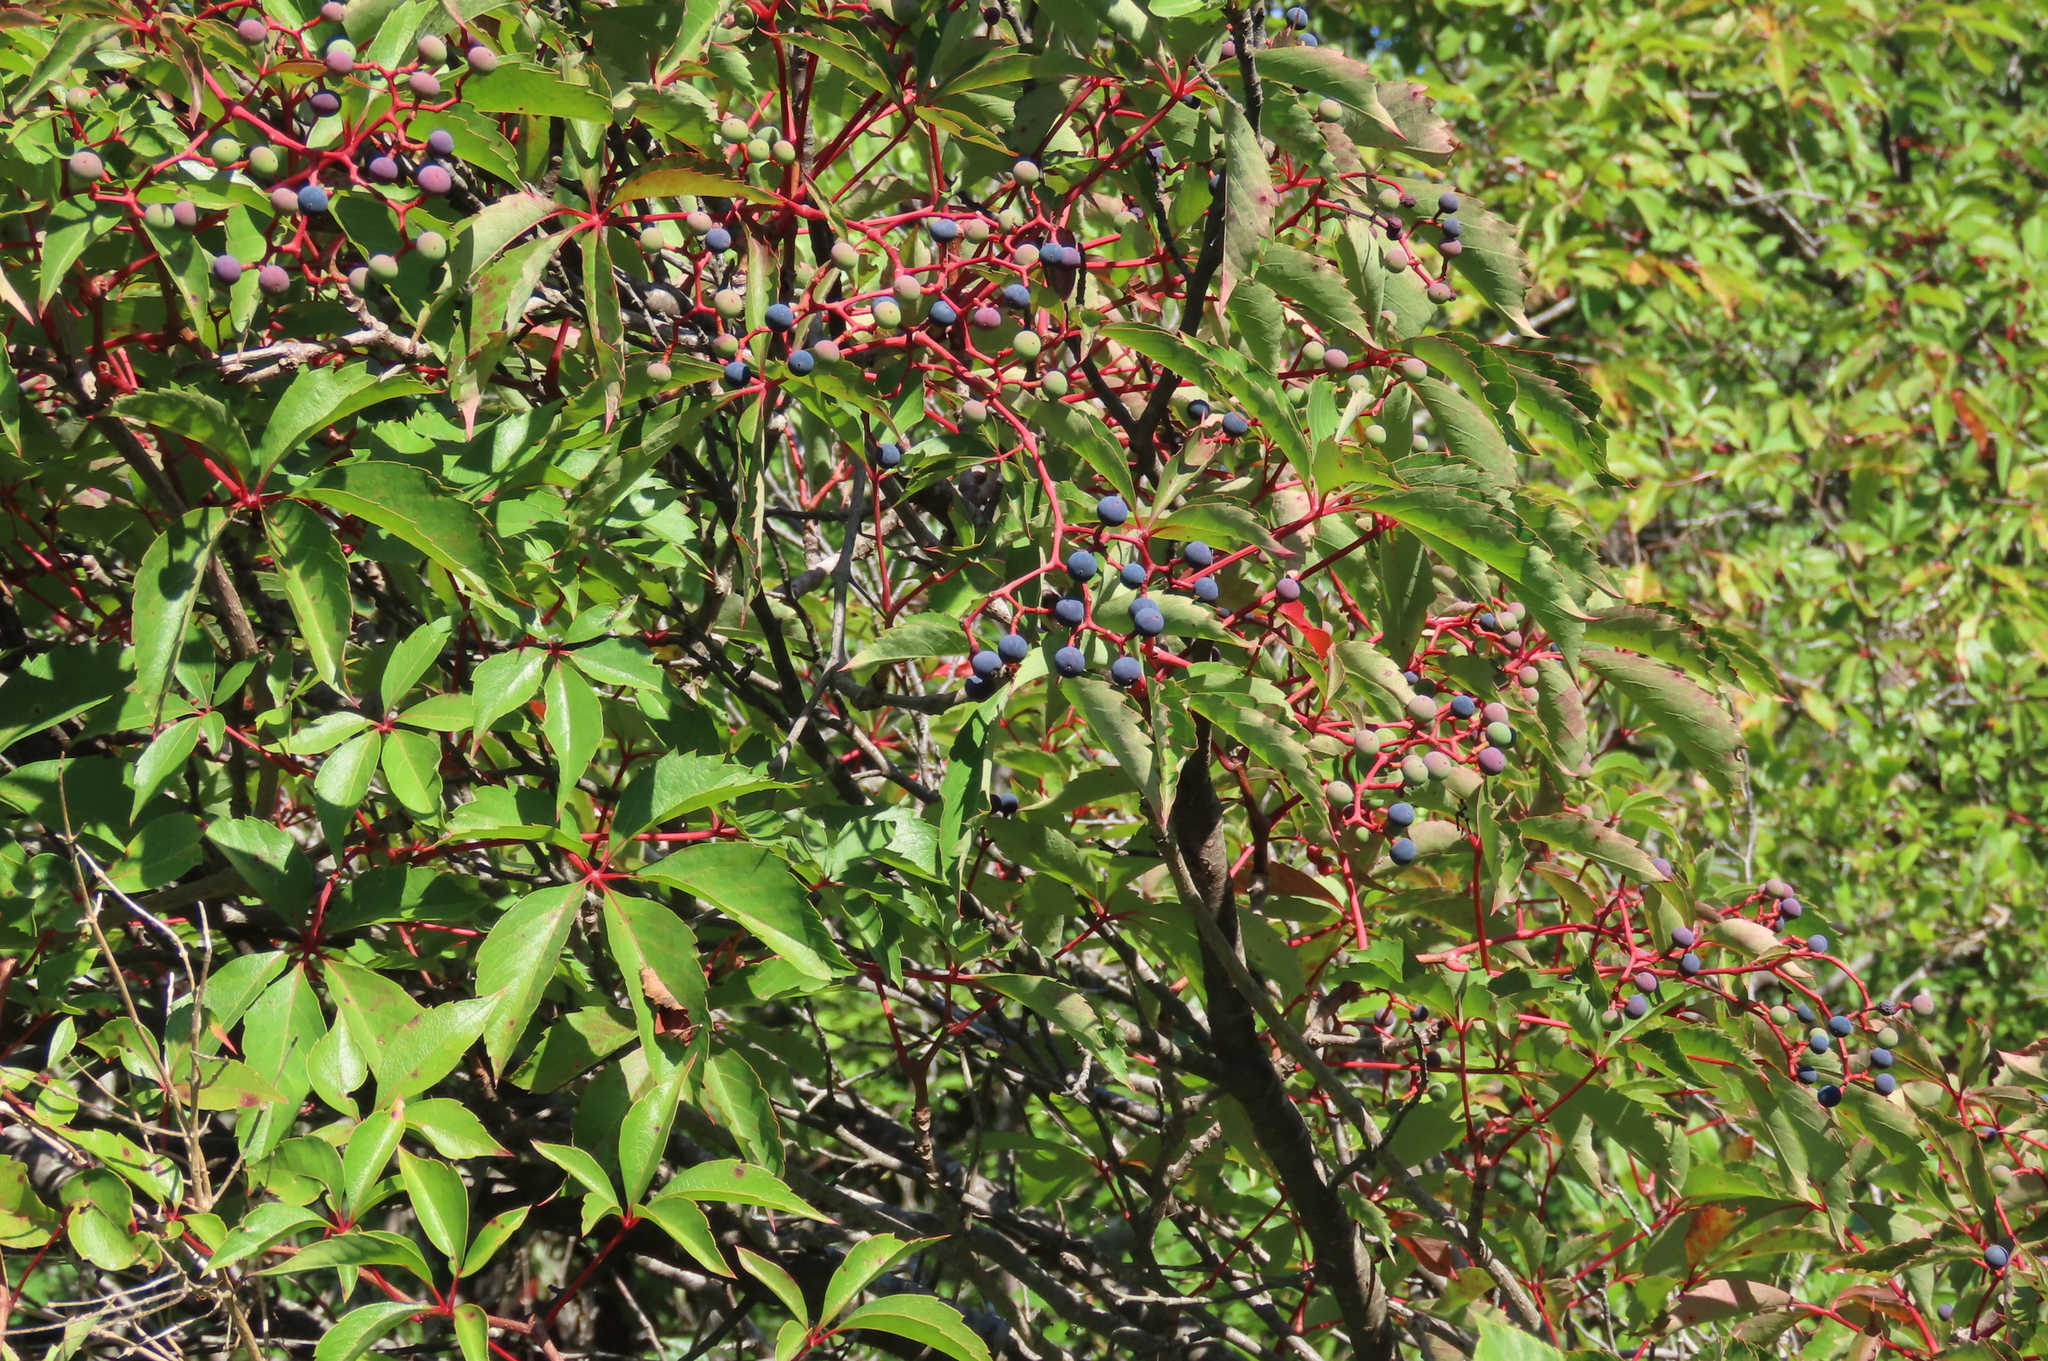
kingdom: Plantae
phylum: Tracheophyta
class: Magnoliopsida
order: Vitales
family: Vitaceae
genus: Parthenocissus
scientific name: Parthenocissus quinquefolia
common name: Virginia-creeper
